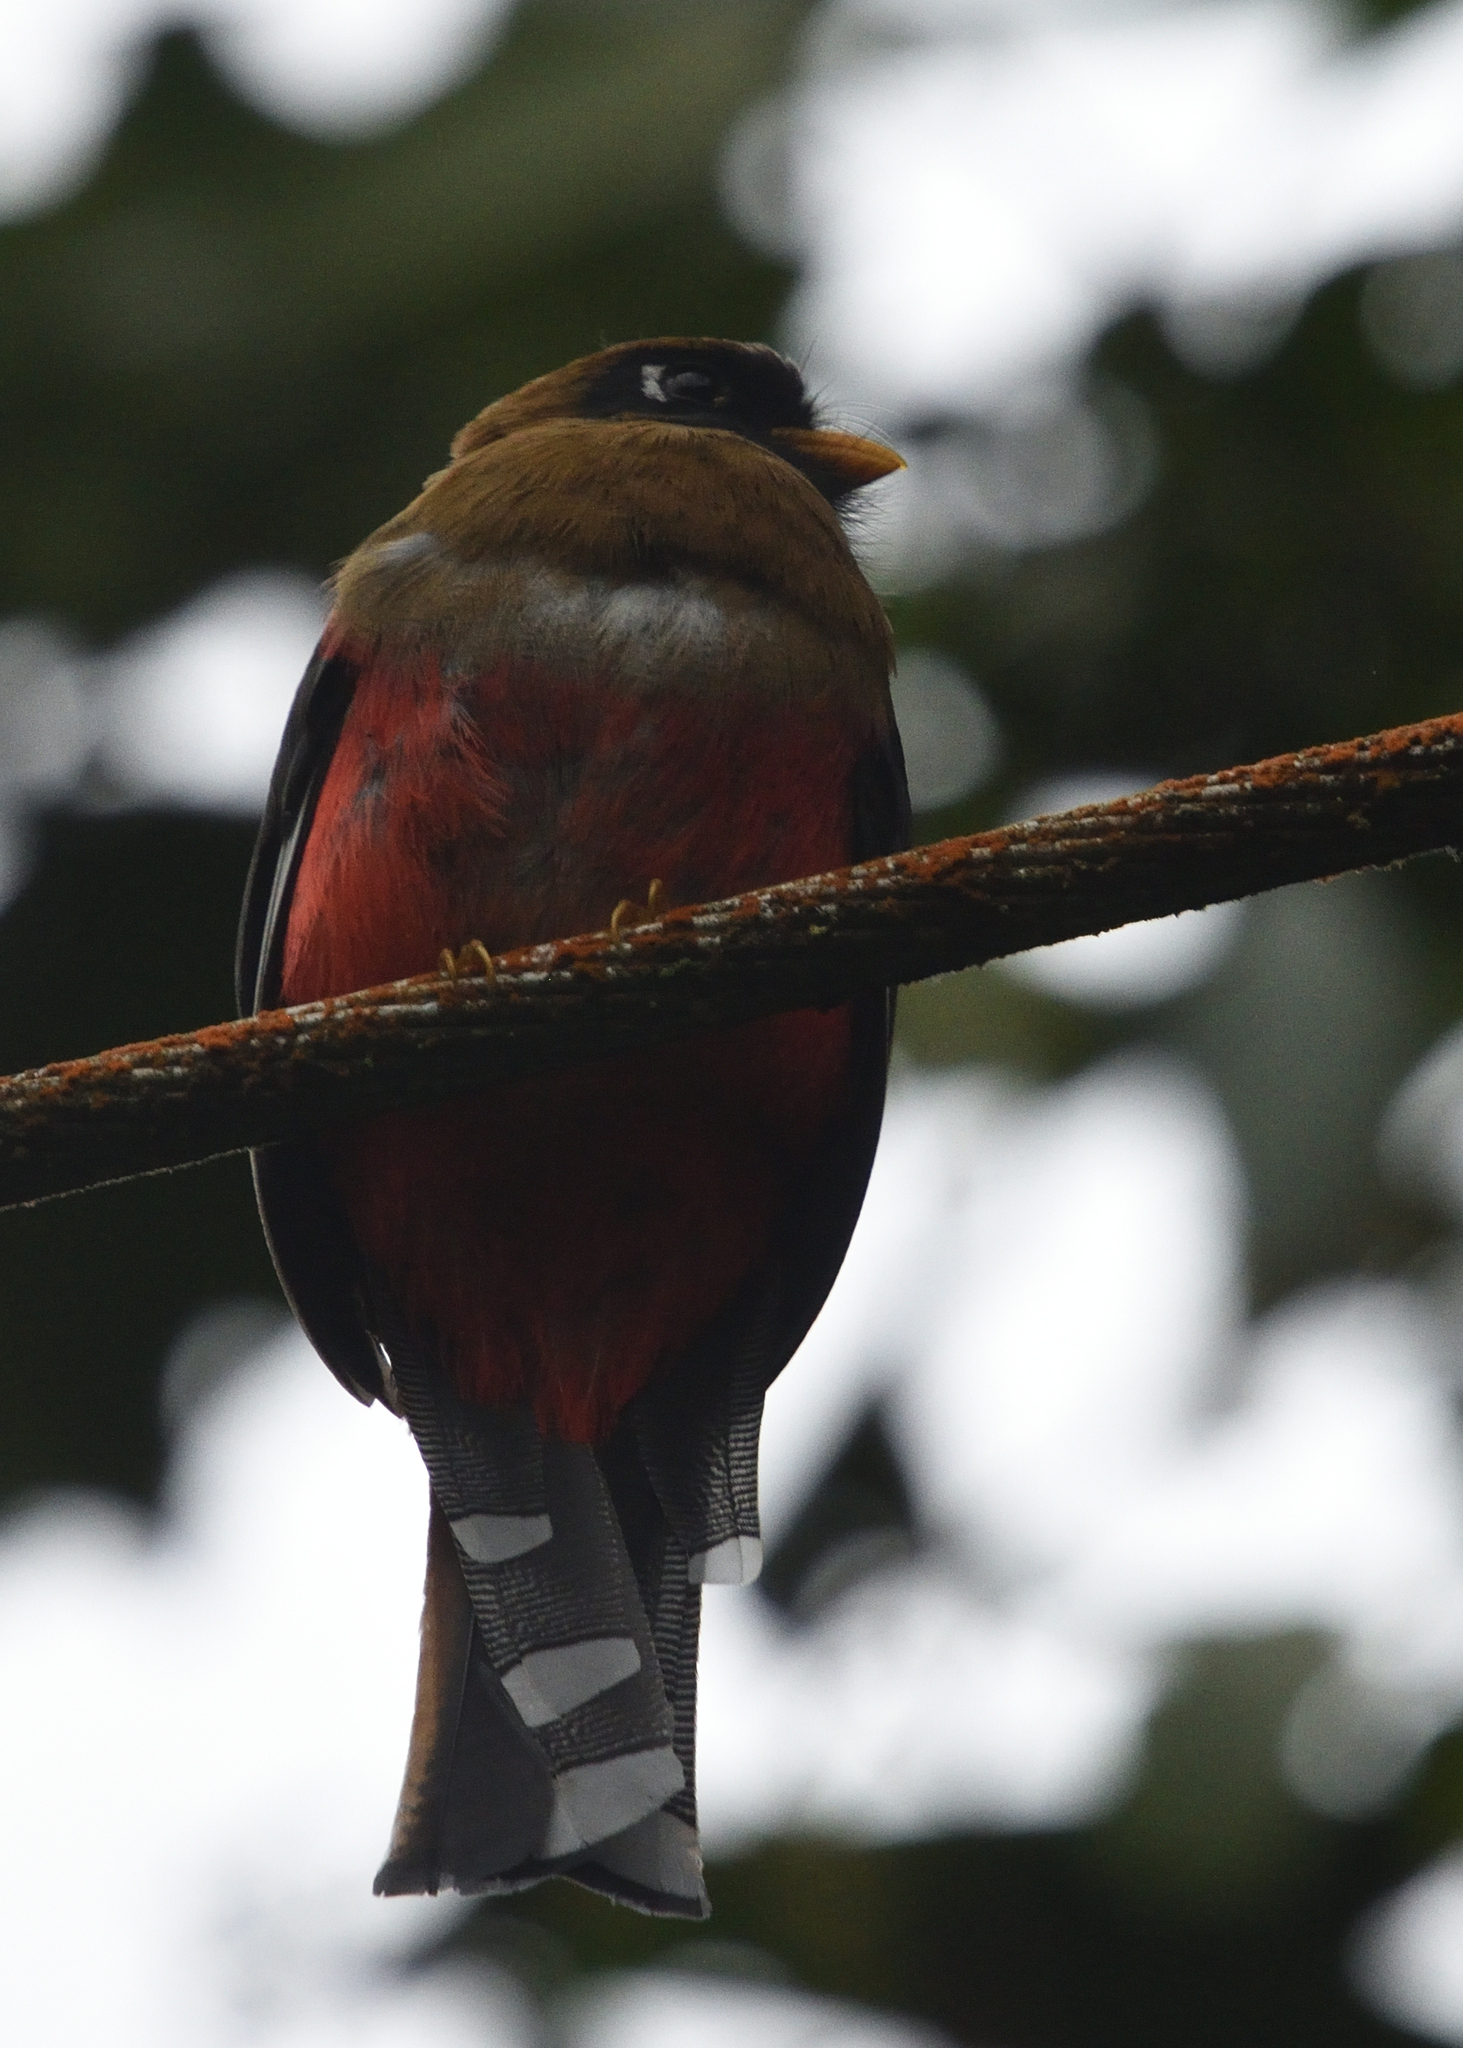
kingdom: Animalia
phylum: Chordata
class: Aves
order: Trogoniformes
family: Trogonidae
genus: Trogon
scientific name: Trogon personatus
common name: Masked trogon
